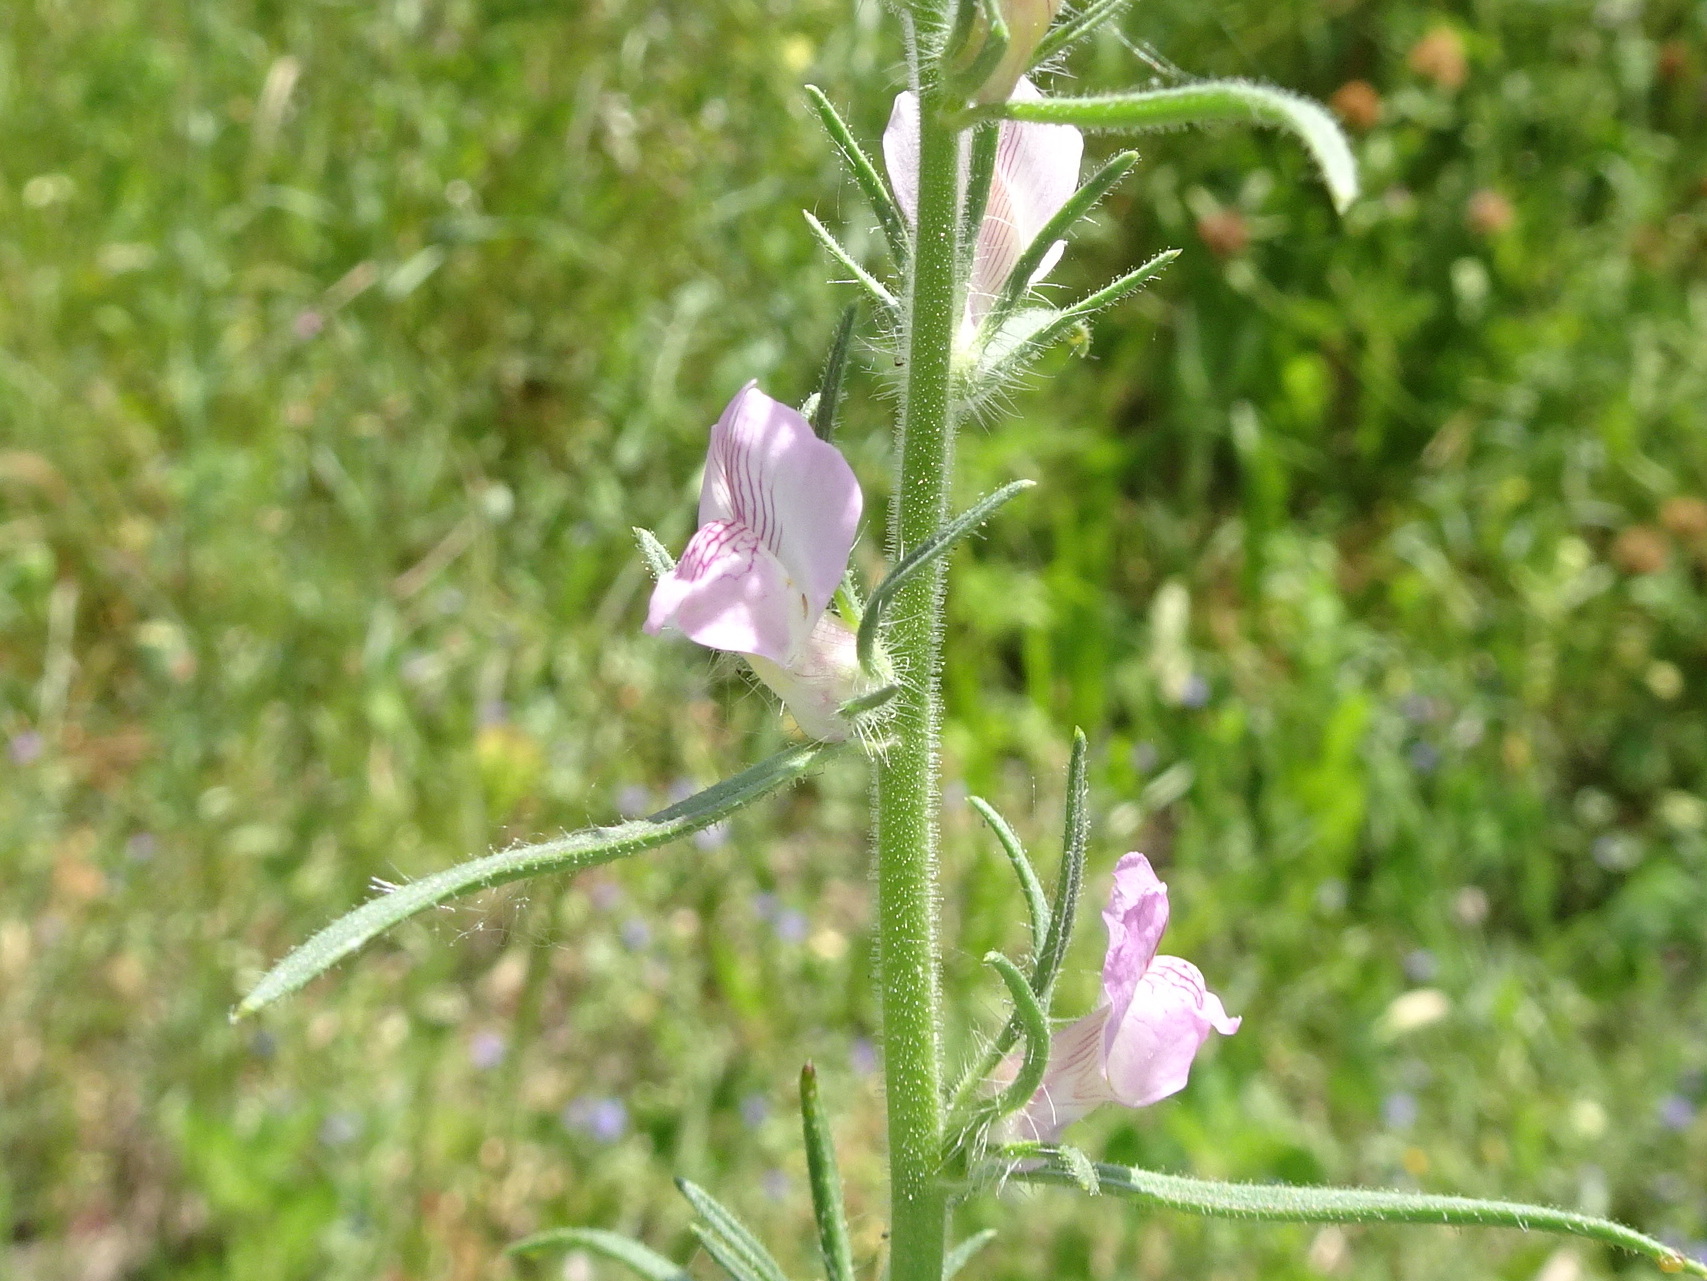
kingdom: Plantae
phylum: Tracheophyta
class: Magnoliopsida
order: Lamiales
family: Plantaginaceae
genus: Misopates
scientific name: Misopates orontium
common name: Weasel's-snout
